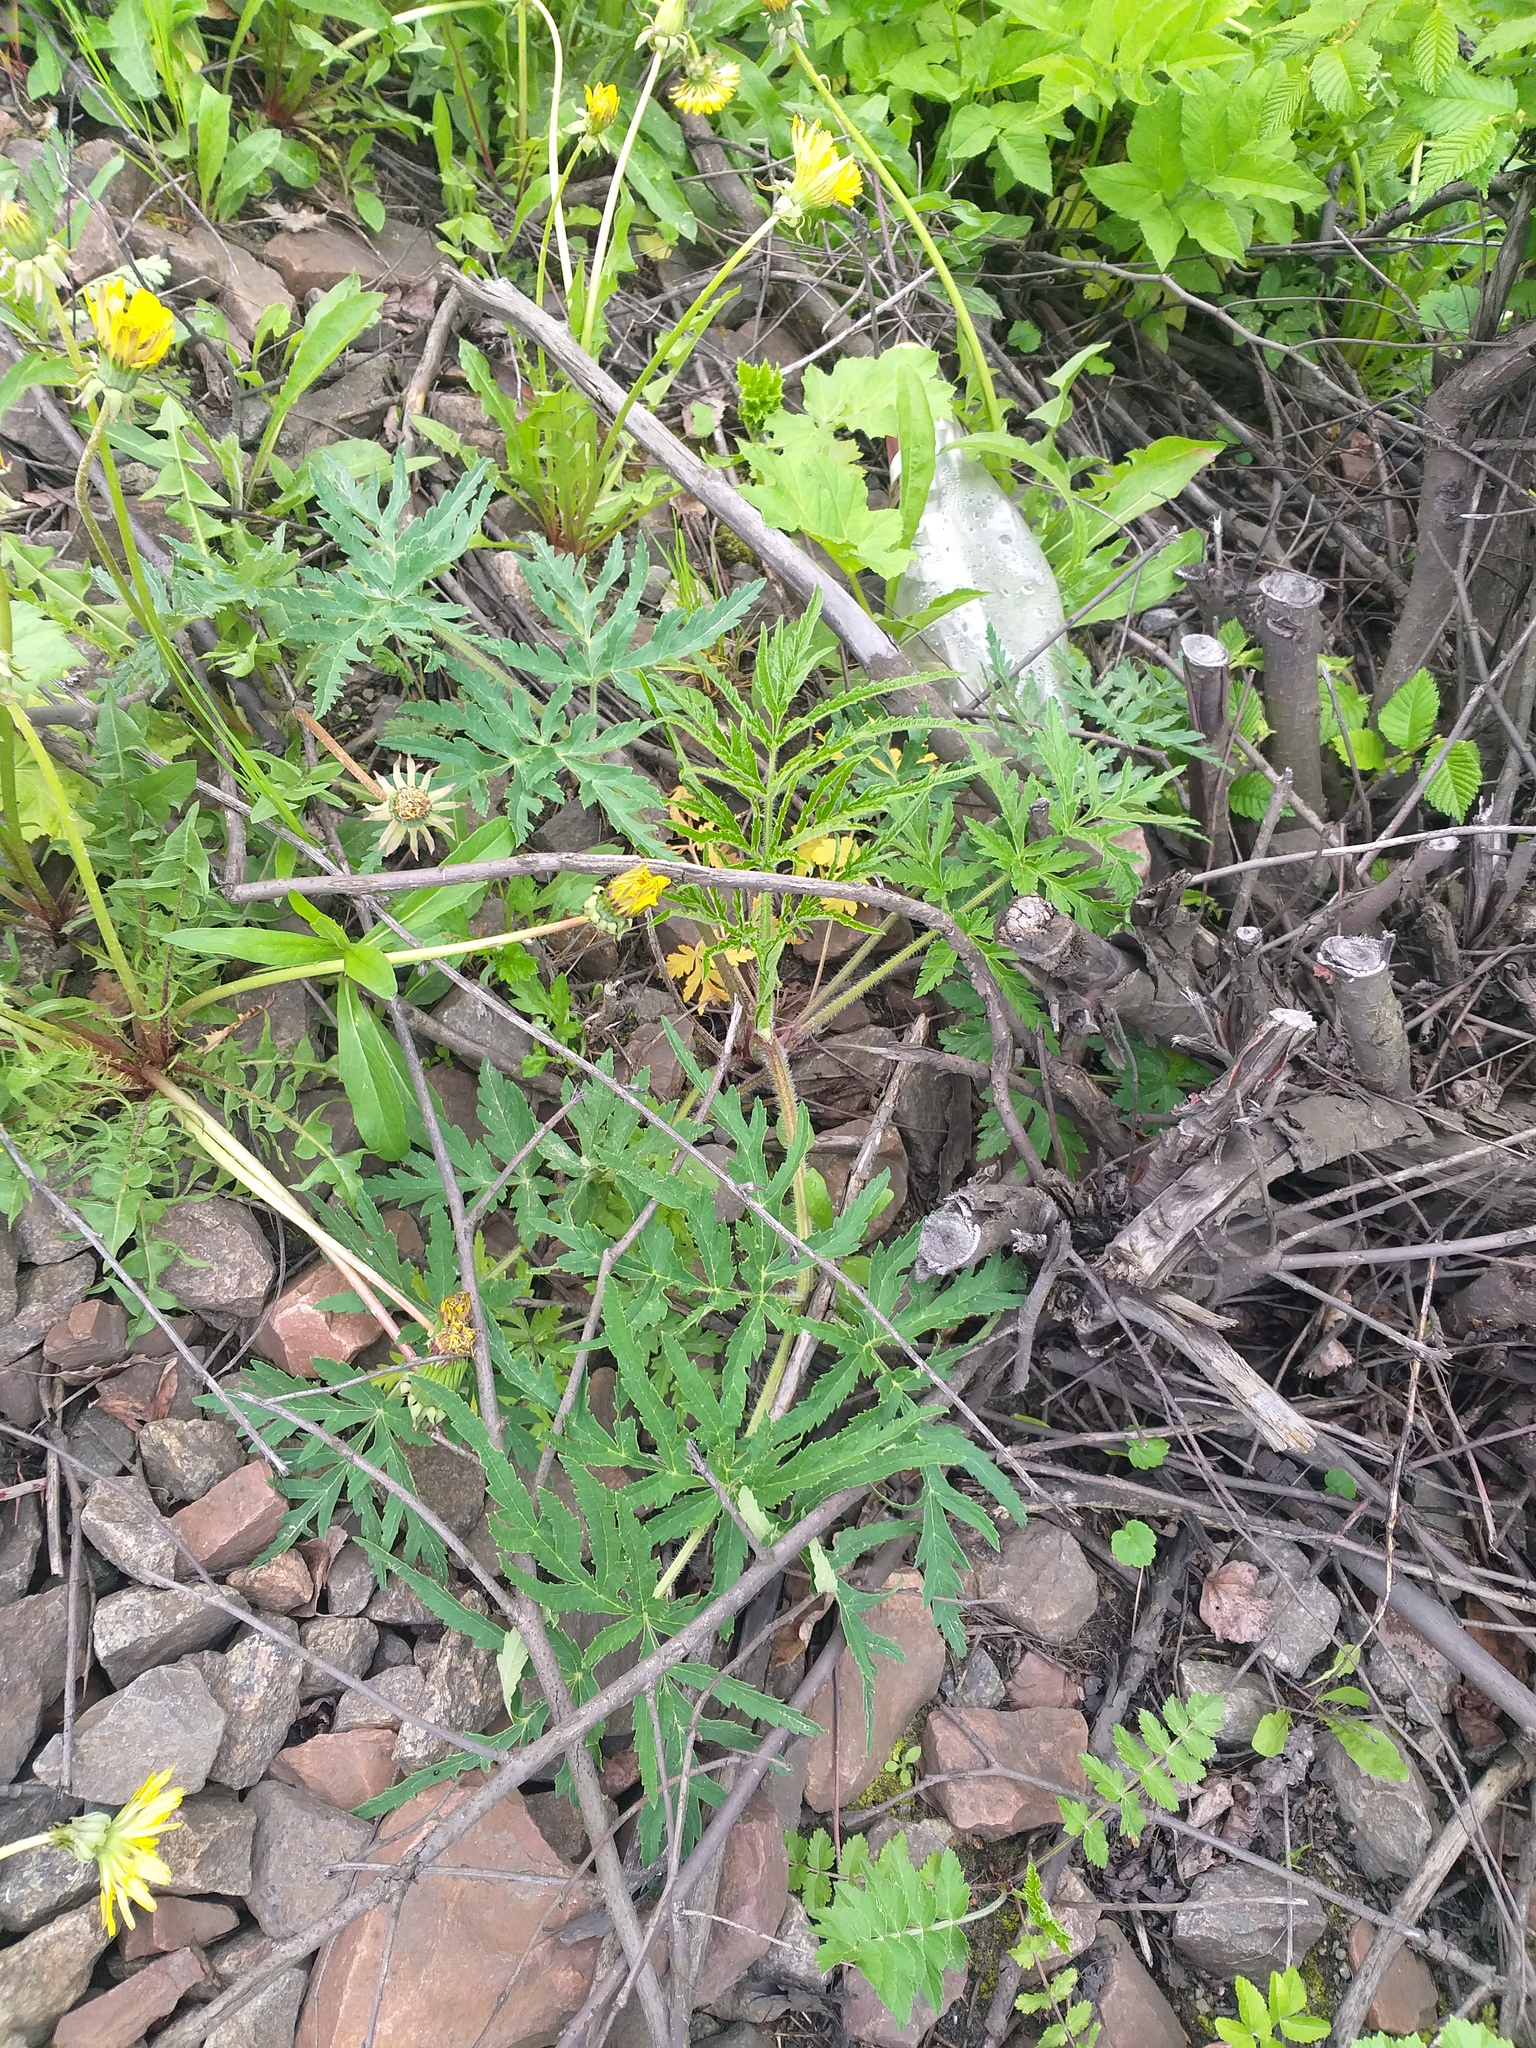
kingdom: Plantae
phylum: Tracheophyta
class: Magnoliopsida
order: Apiales
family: Apiaceae
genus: Heracleum
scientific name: Heracleum sphondylium
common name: Hogweed
